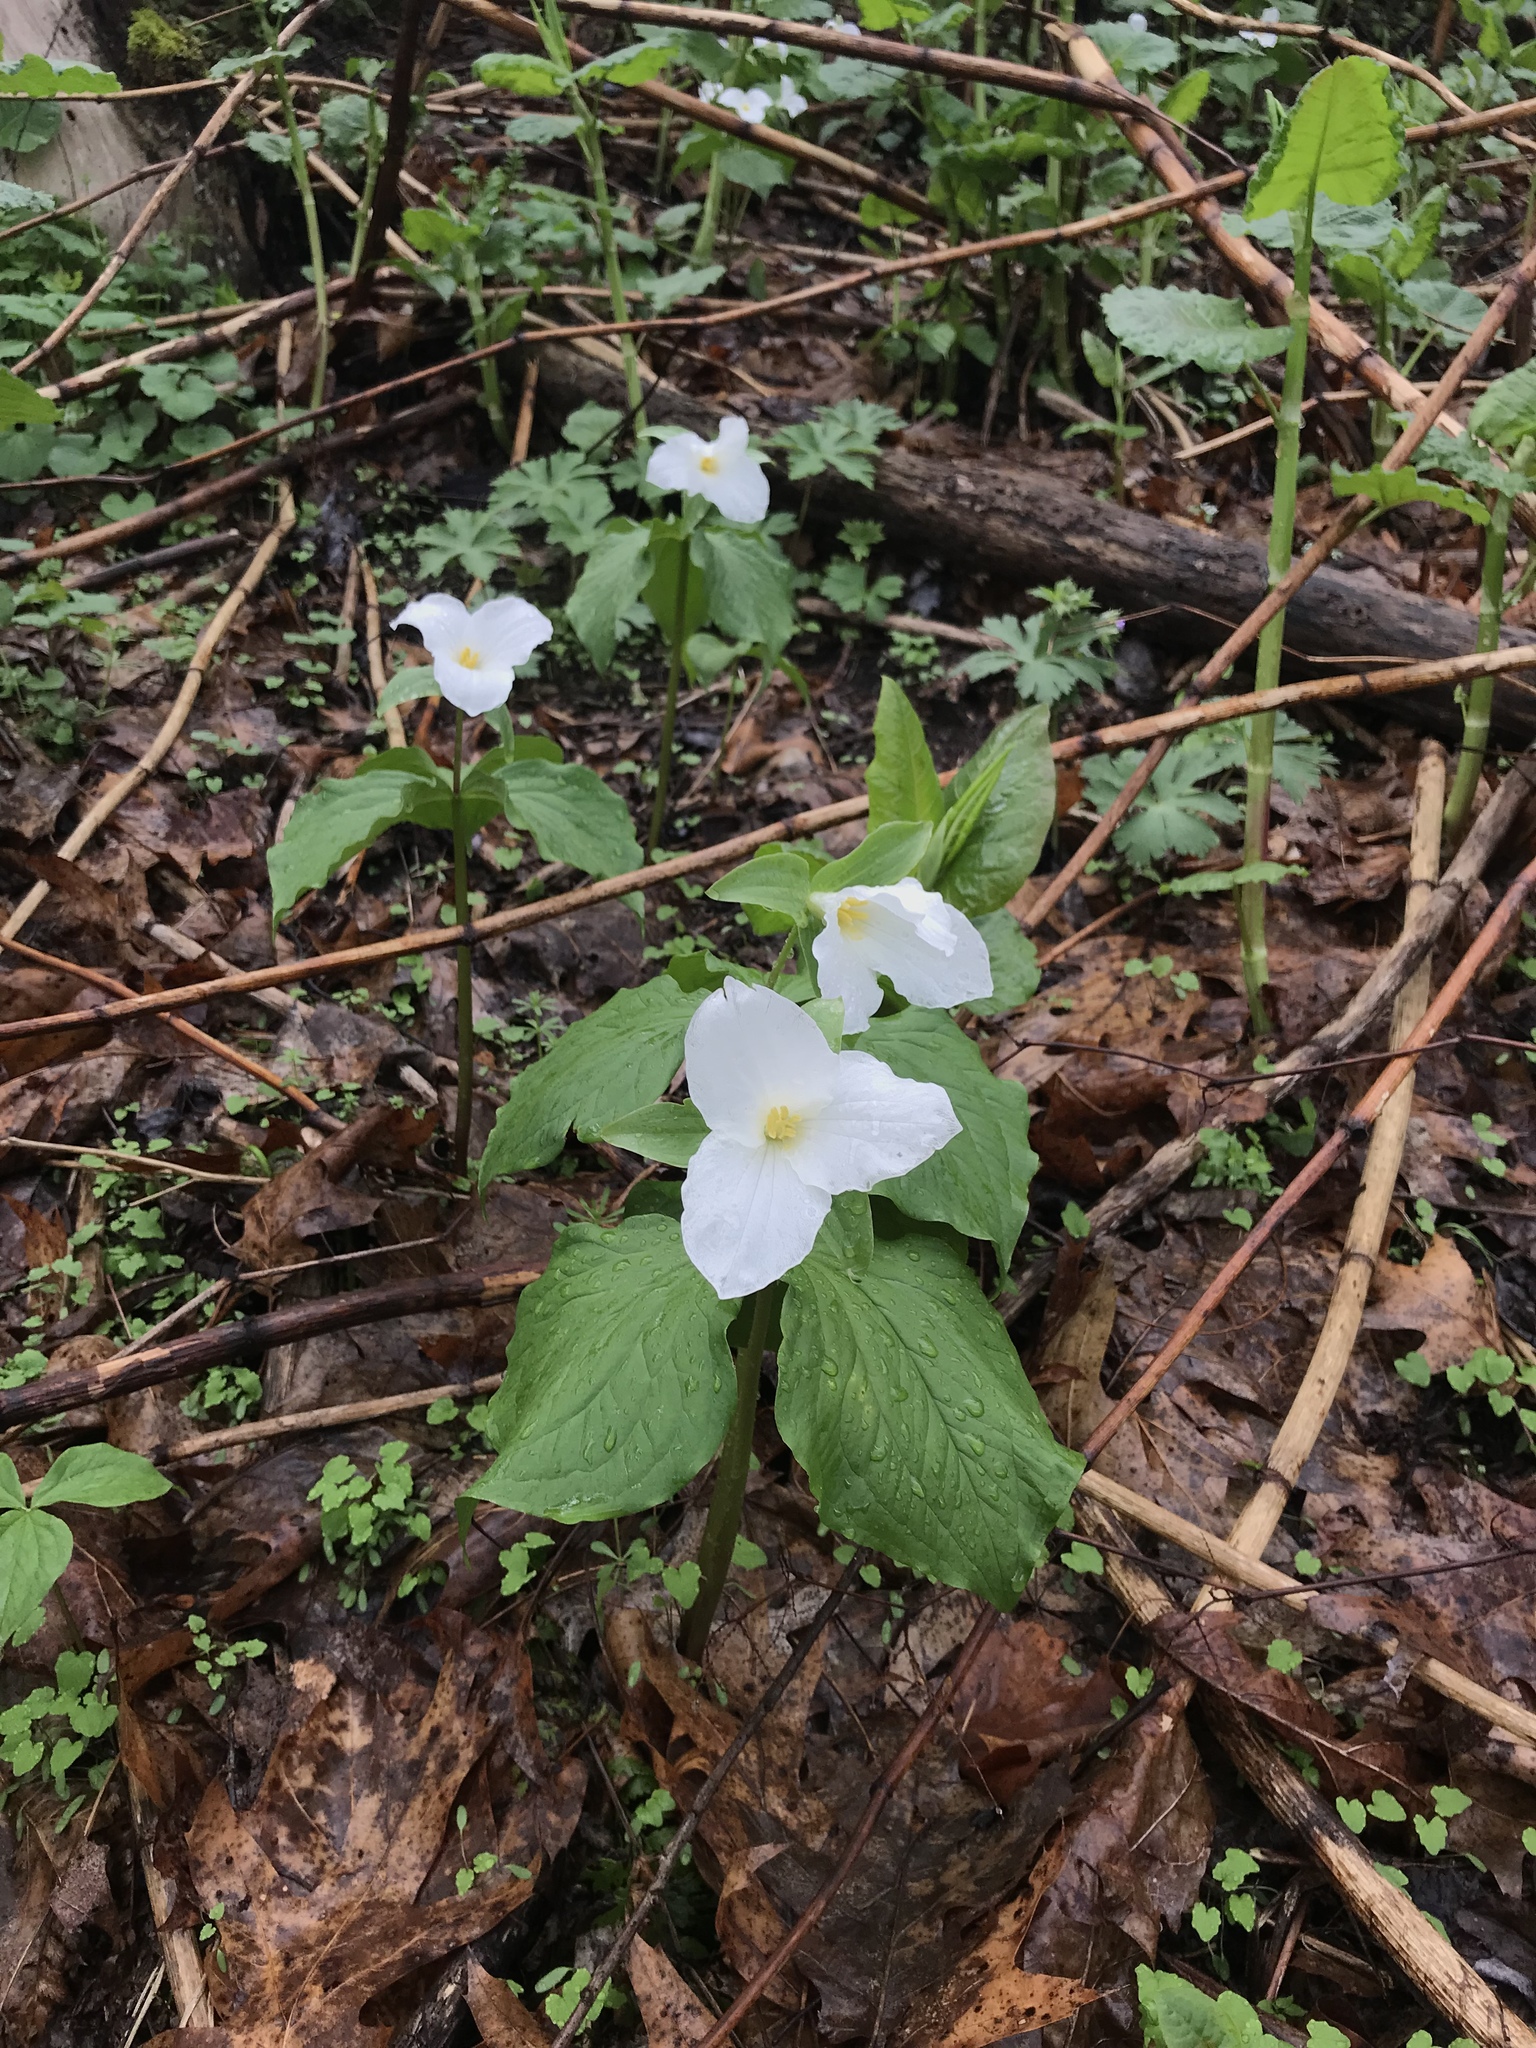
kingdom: Plantae
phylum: Tracheophyta
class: Liliopsida
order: Liliales
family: Melanthiaceae
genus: Trillium
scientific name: Trillium grandiflorum
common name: Great white trillium
